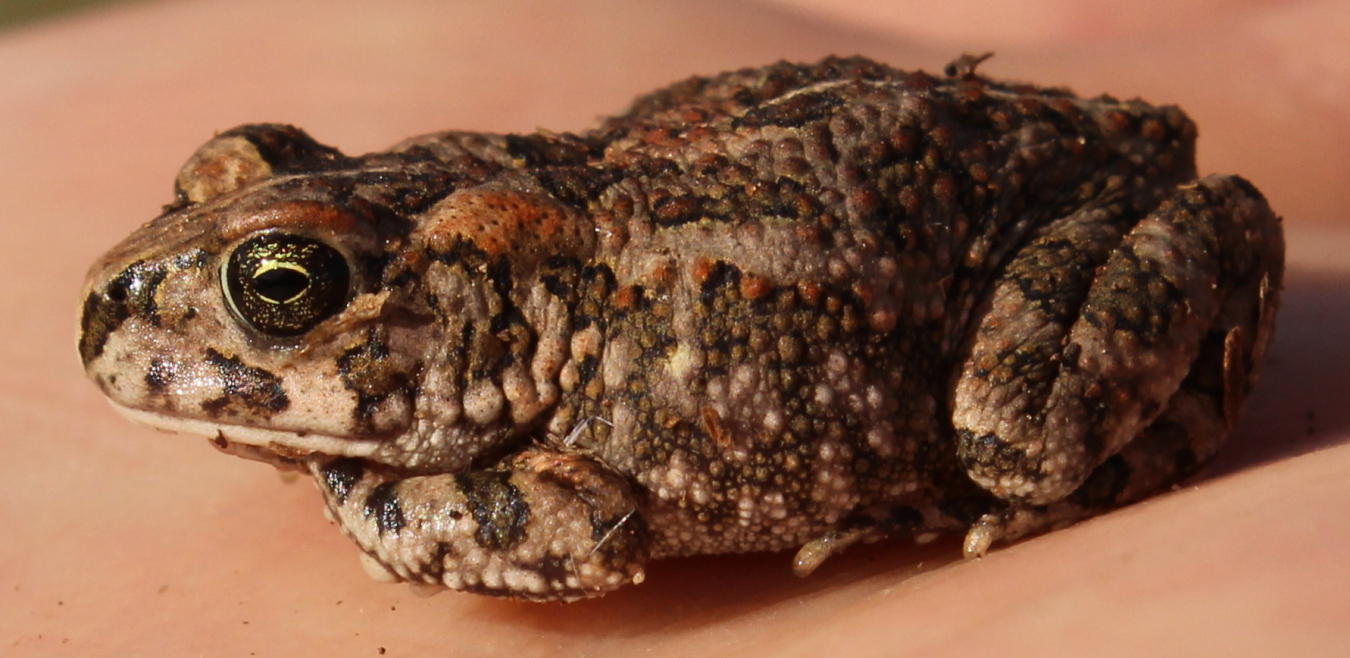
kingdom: Animalia
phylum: Chordata
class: Amphibia
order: Anura
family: Bufonidae
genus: Sclerophrys
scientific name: Sclerophrys capensis
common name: Ranger’s toad
